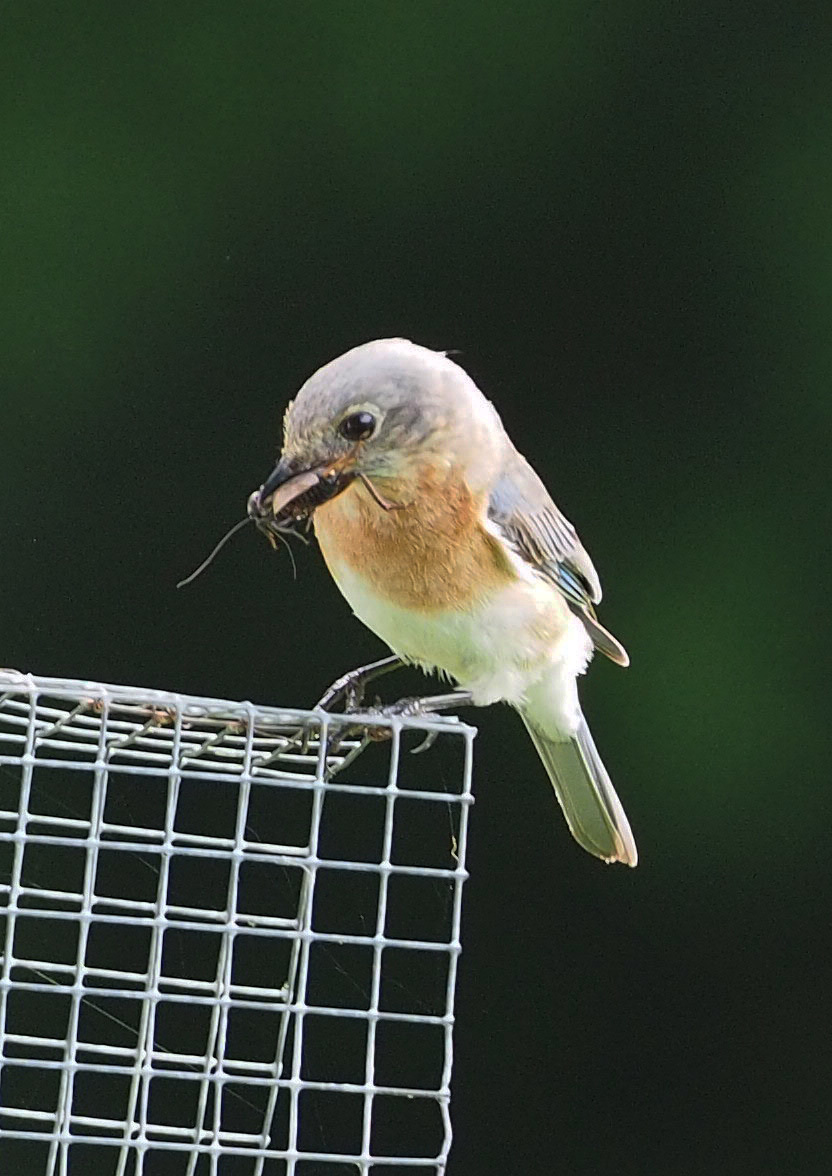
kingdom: Animalia
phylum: Chordata
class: Aves
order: Passeriformes
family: Turdidae
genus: Sialia
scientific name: Sialia sialis
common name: Eastern bluebird
